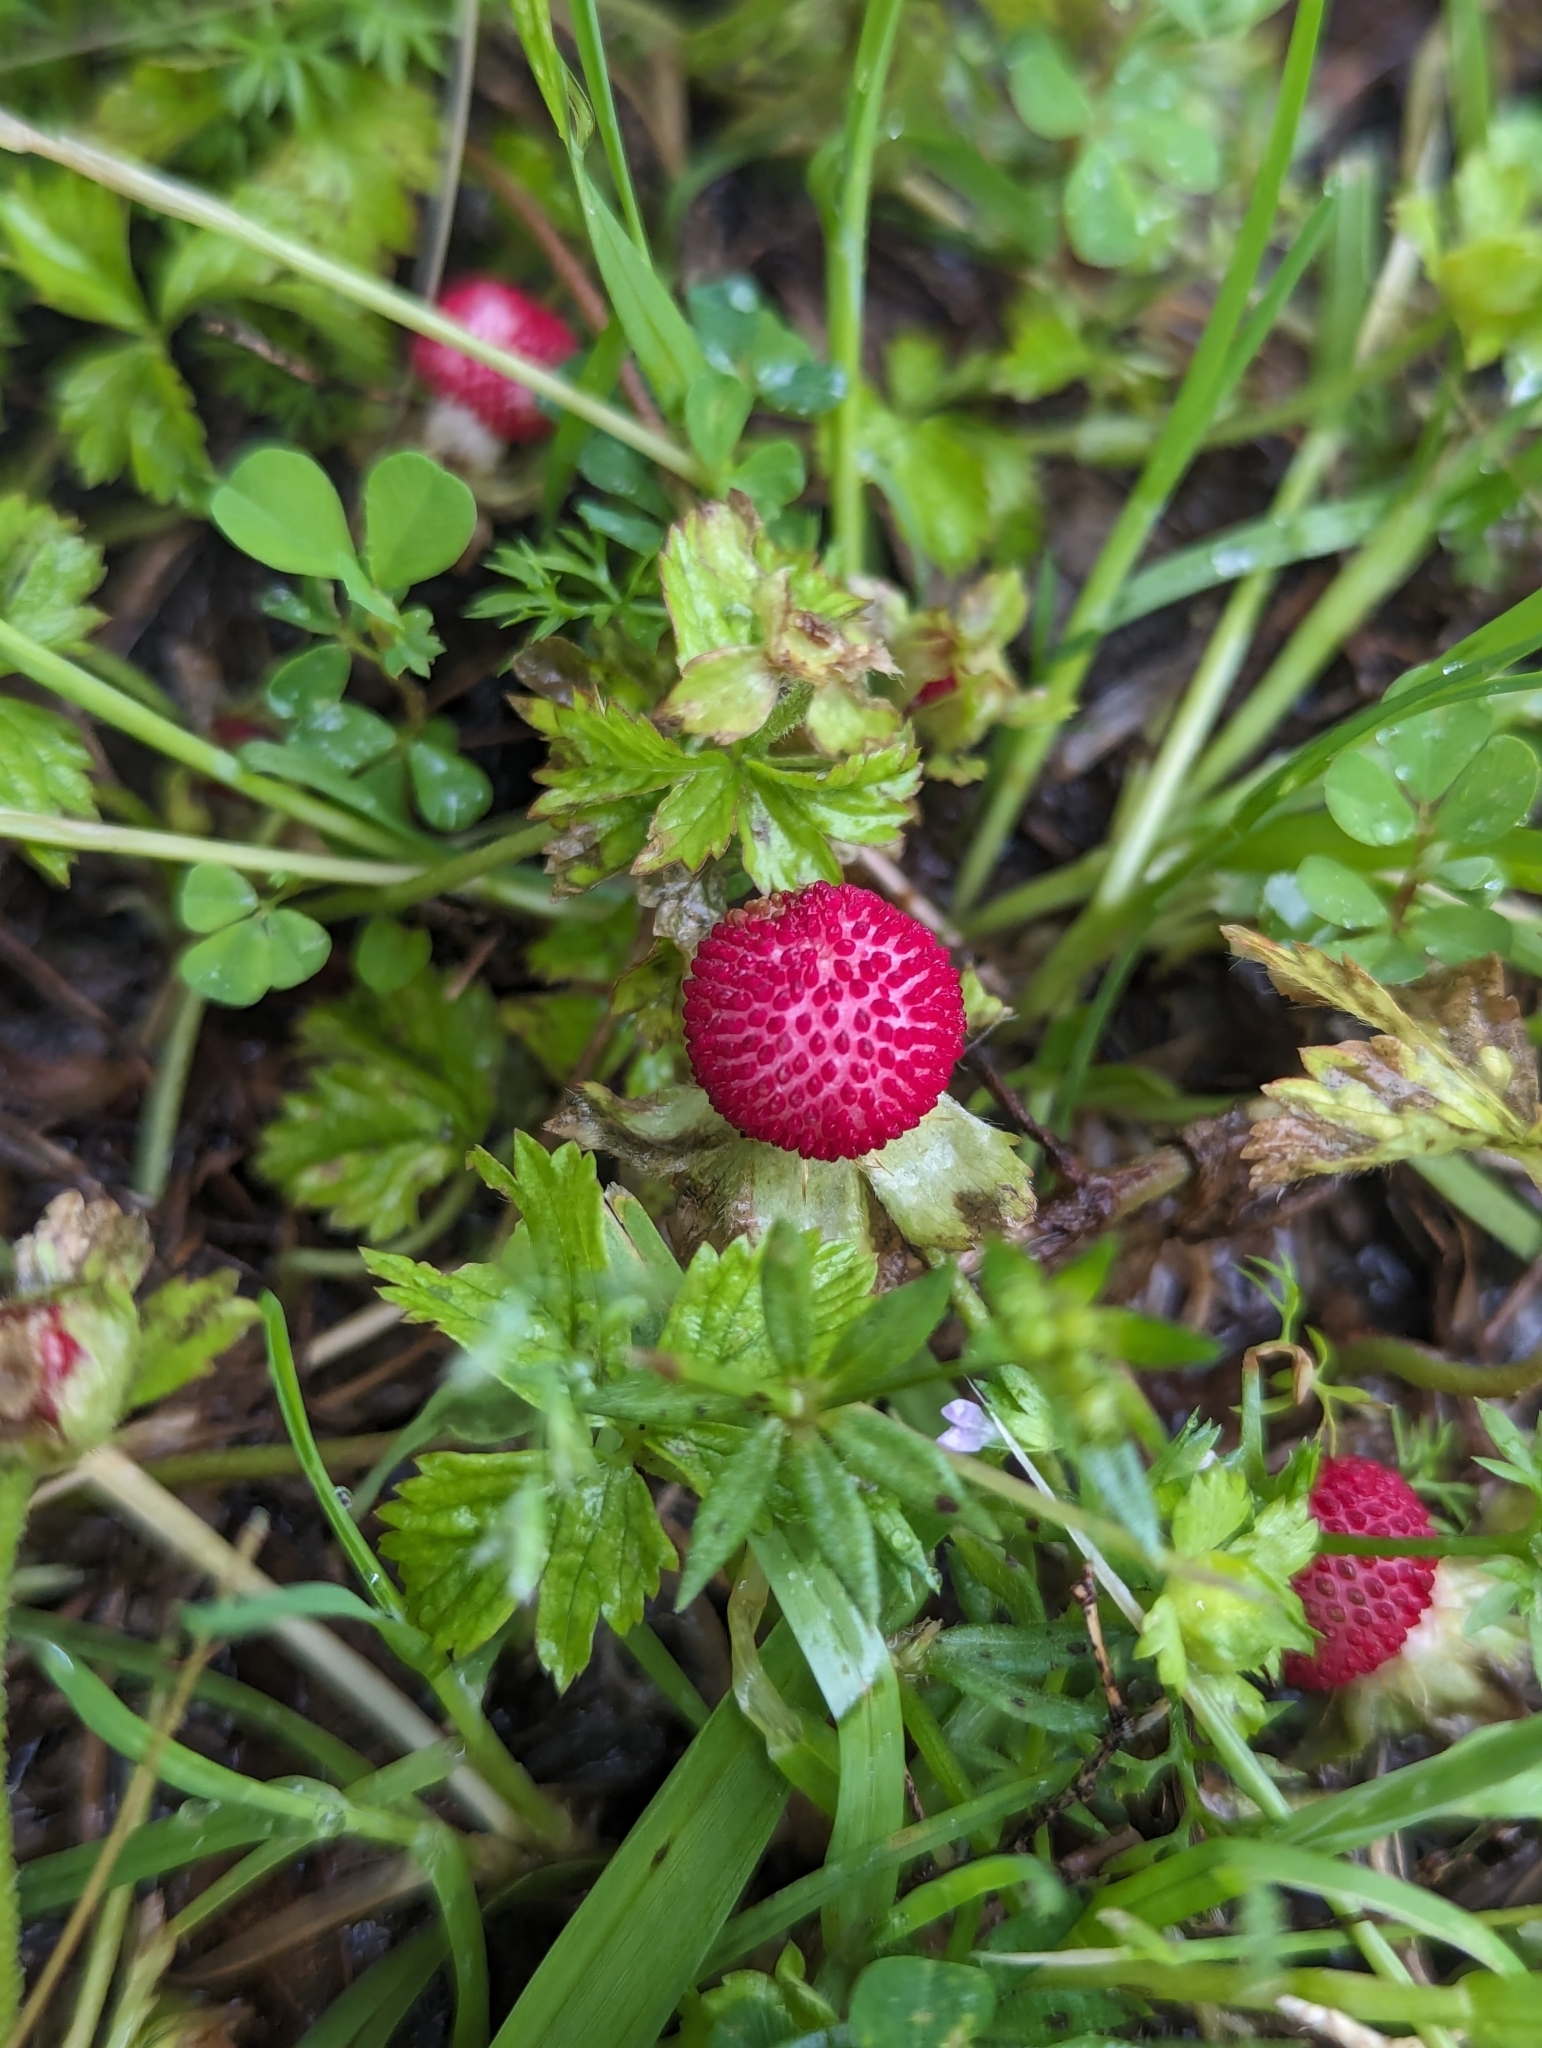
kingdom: Plantae
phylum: Tracheophyta
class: Magnoliopsida
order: Rosales
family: Rosaceae
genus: Potentilla
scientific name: Potentilla indica
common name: Yellow-flowered strawberry
